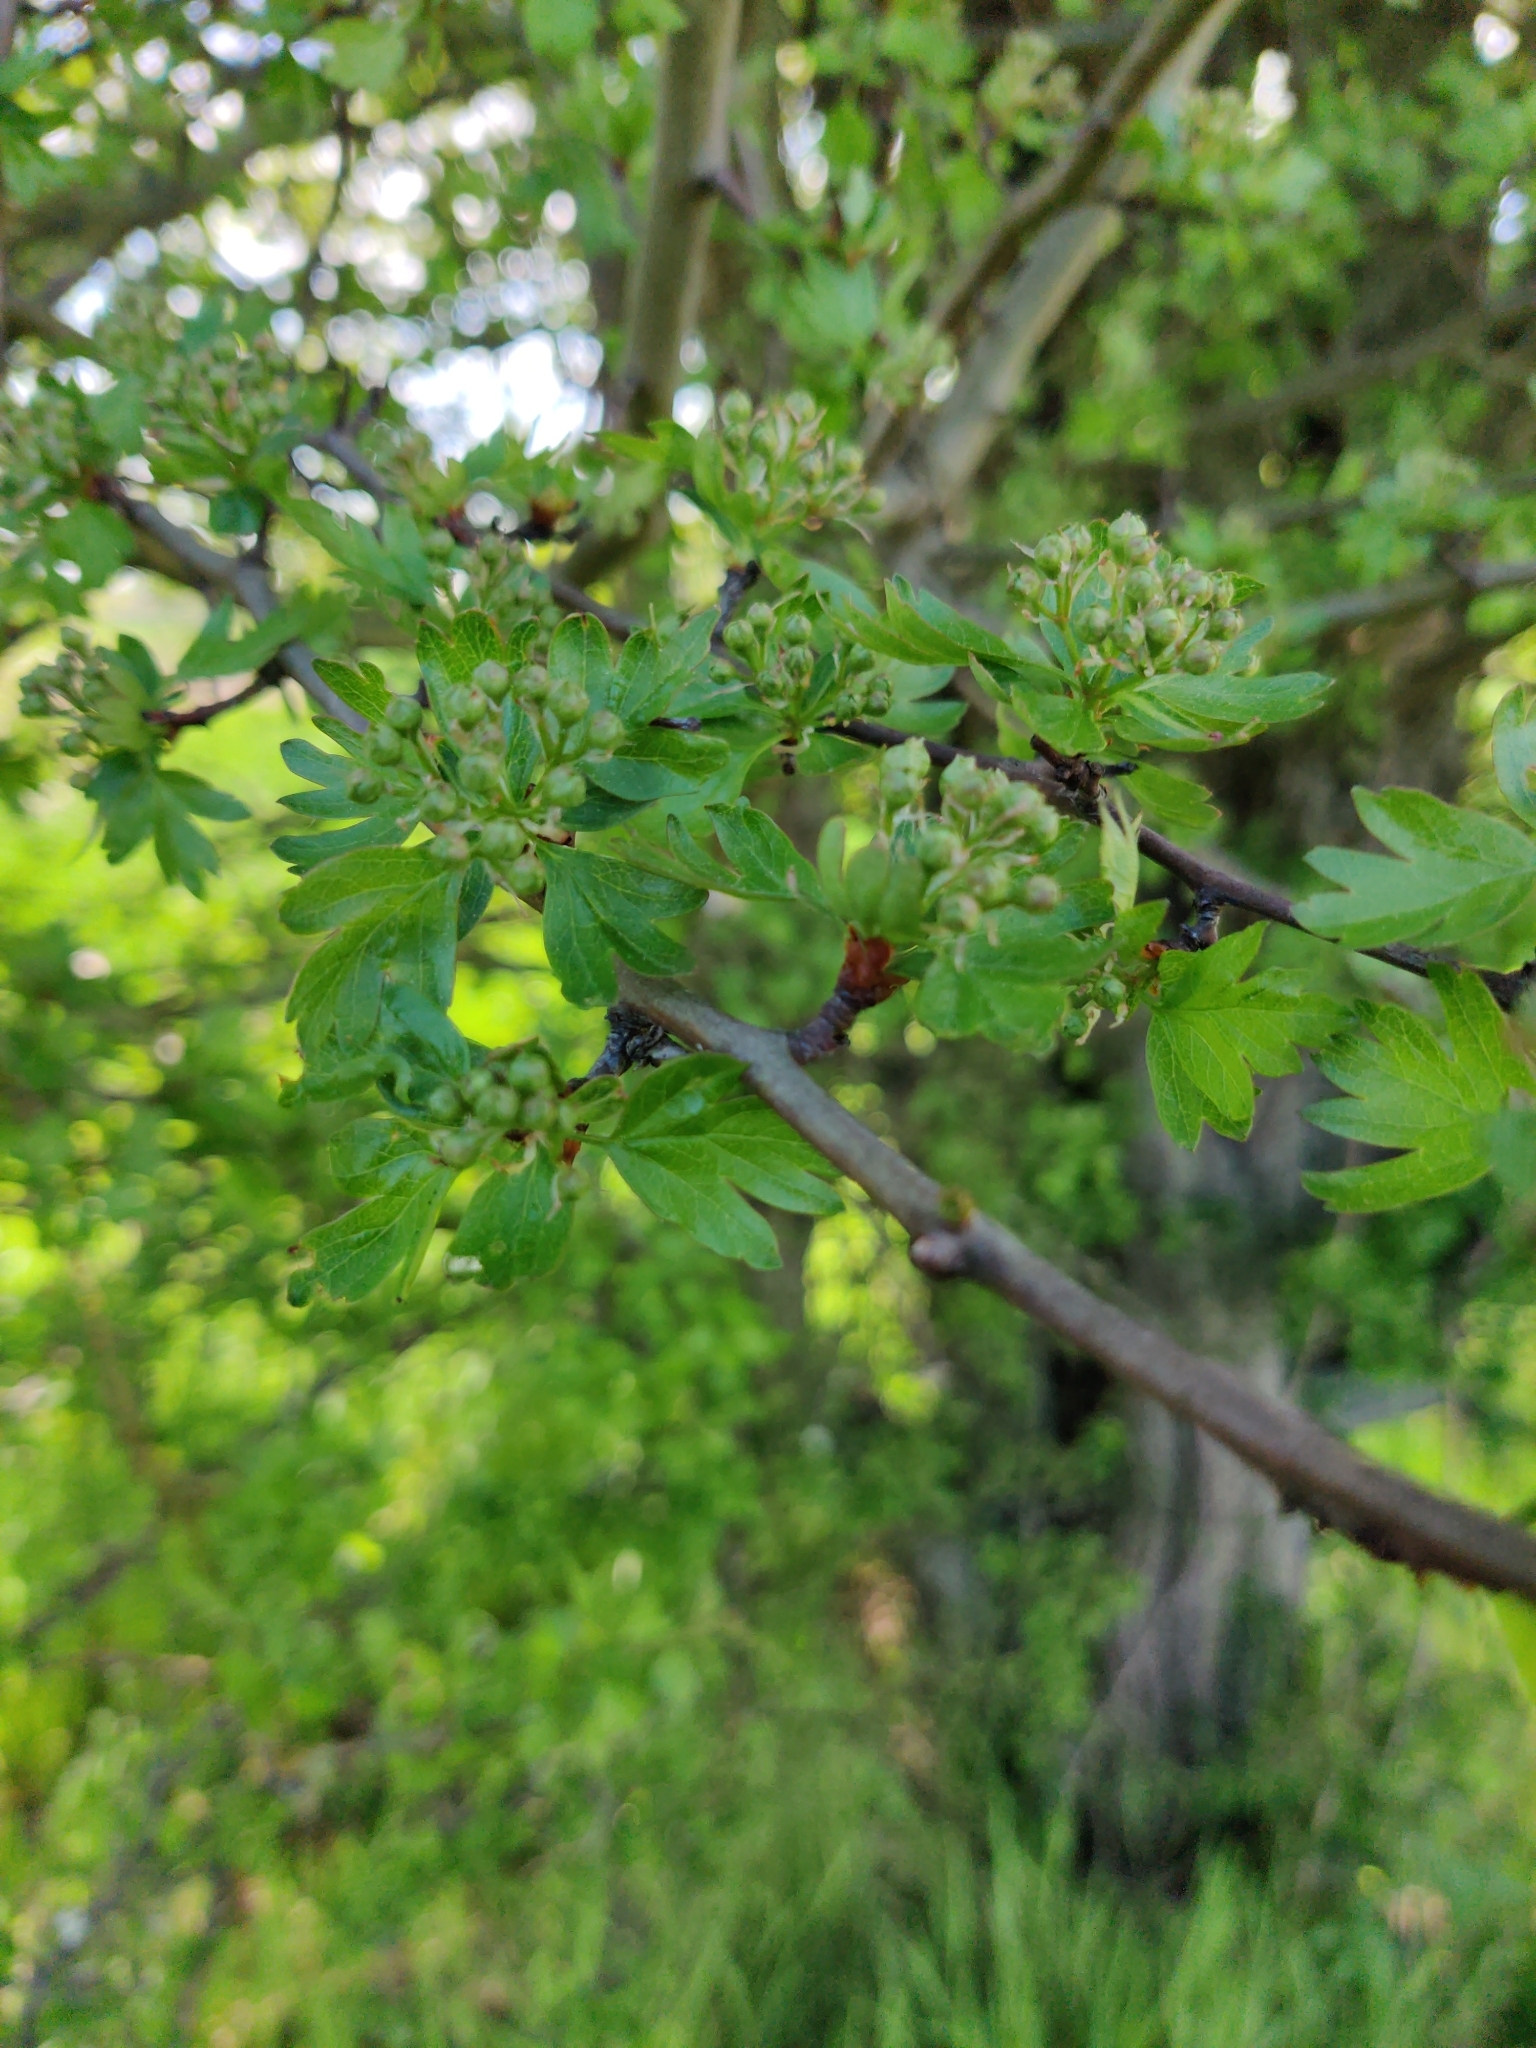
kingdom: Plantae
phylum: Tracheophyta
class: Magnoliopsida
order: Rosales
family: Rosaceae
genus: Crataegus
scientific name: Crataegus monogyna
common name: Hawthorn
